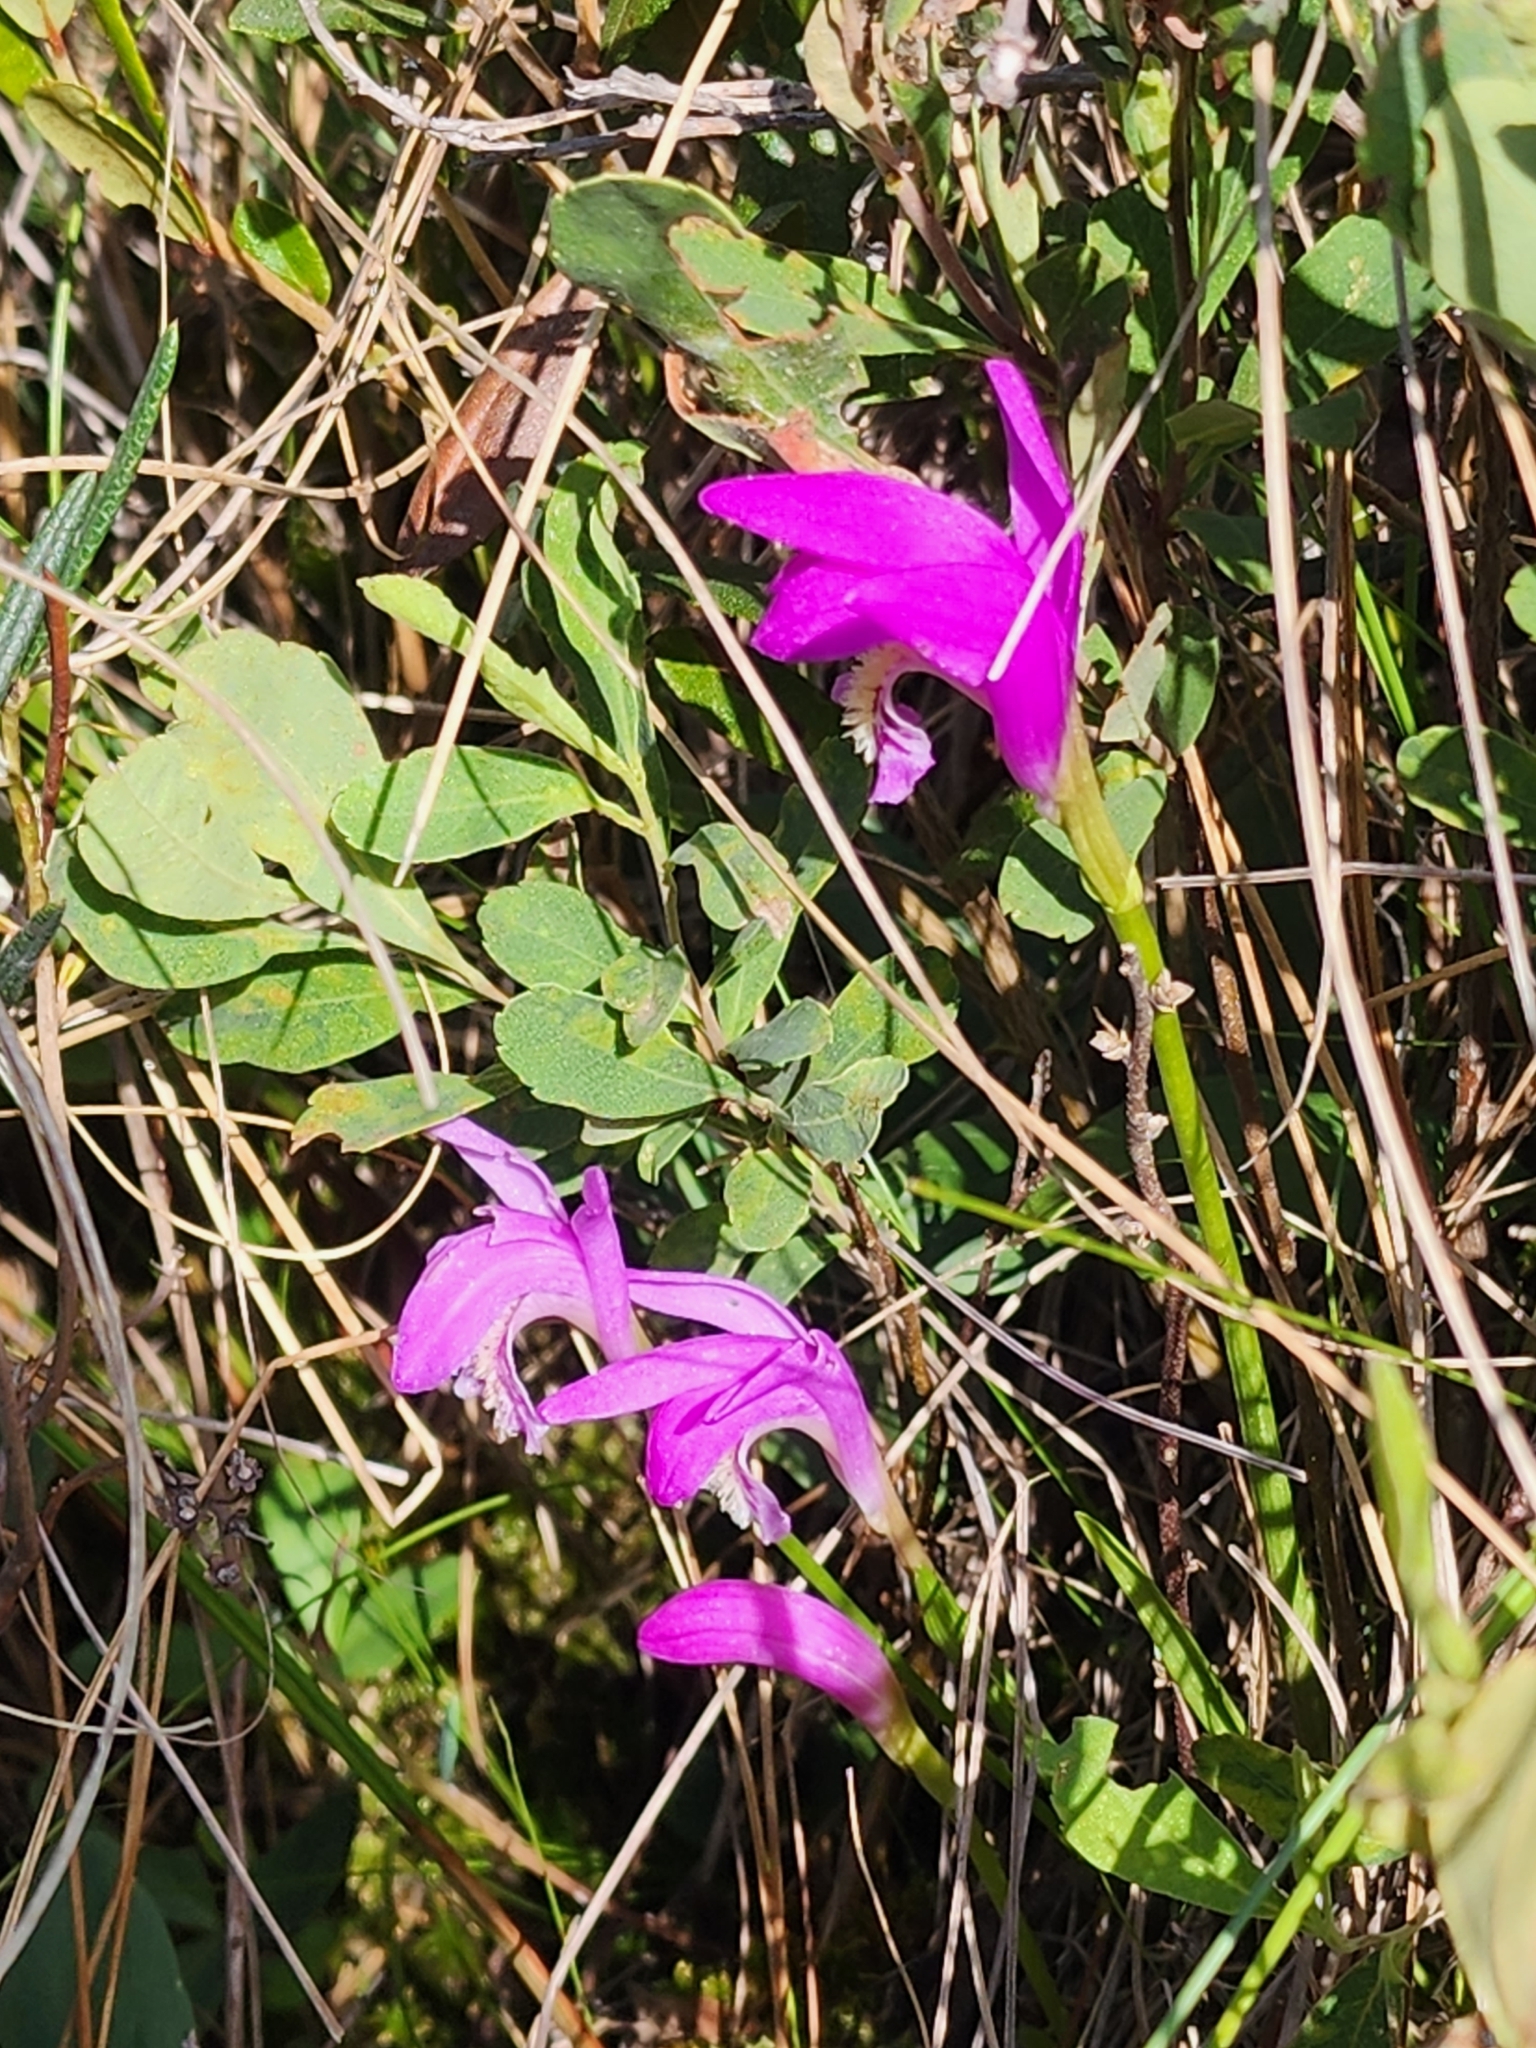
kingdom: Plantae
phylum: Tracheophyta
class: Liliopsida
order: Asparagales
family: Orchidaceae
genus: Arethusa
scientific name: Arethusa bulbosa
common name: Arethusa
